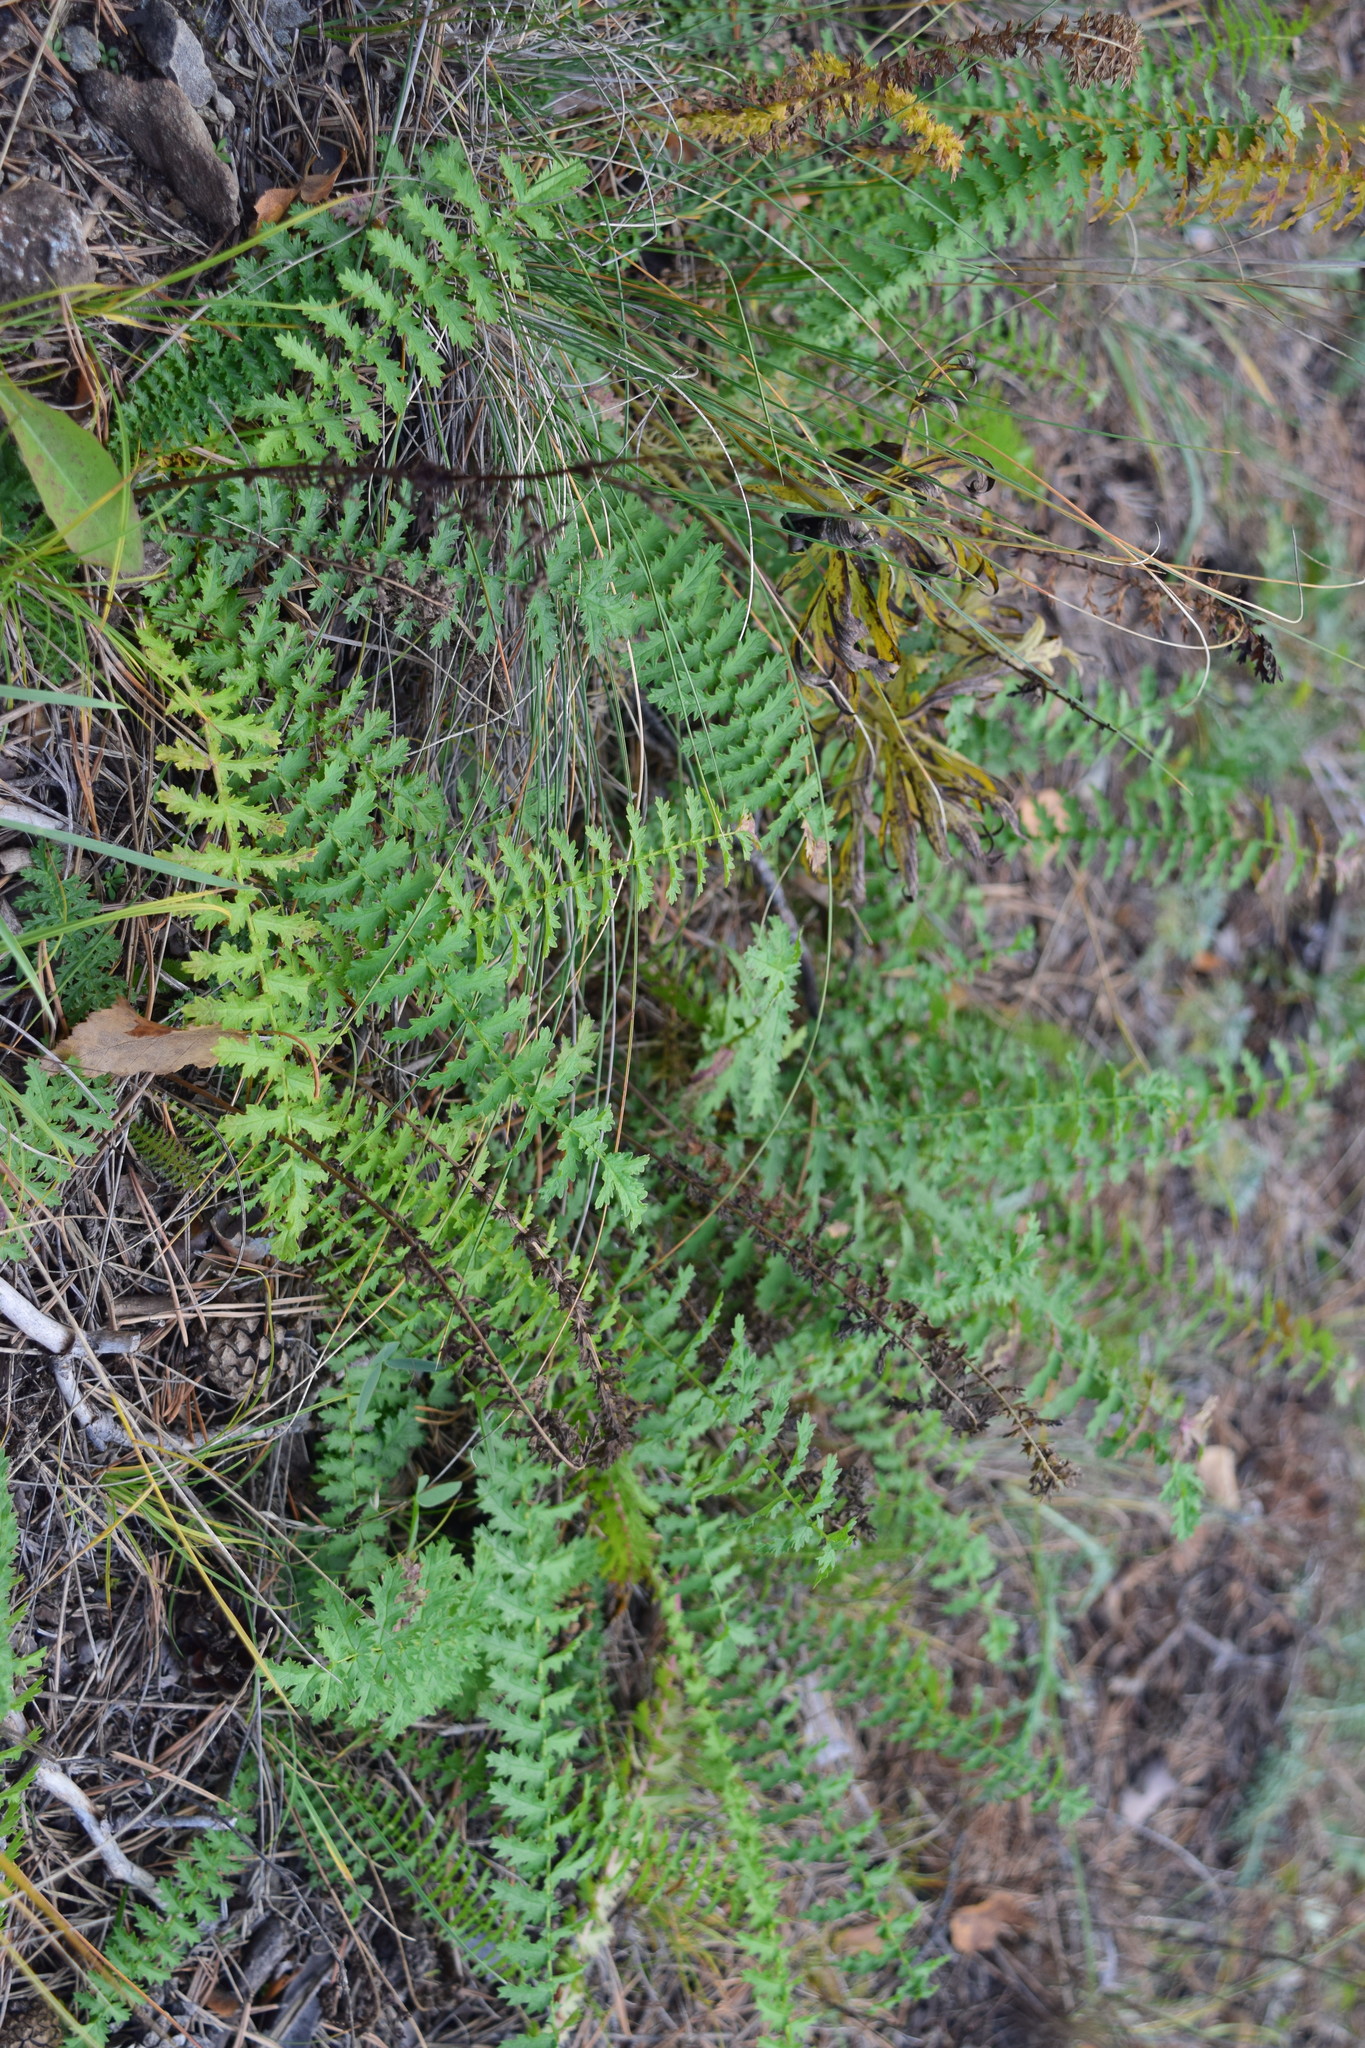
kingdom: Plantae
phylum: Tracheophyta
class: Magnoliopsida
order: Rosales
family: Rosaceae
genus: Filipendula
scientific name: Filipendula vulgaris
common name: Dropwort
